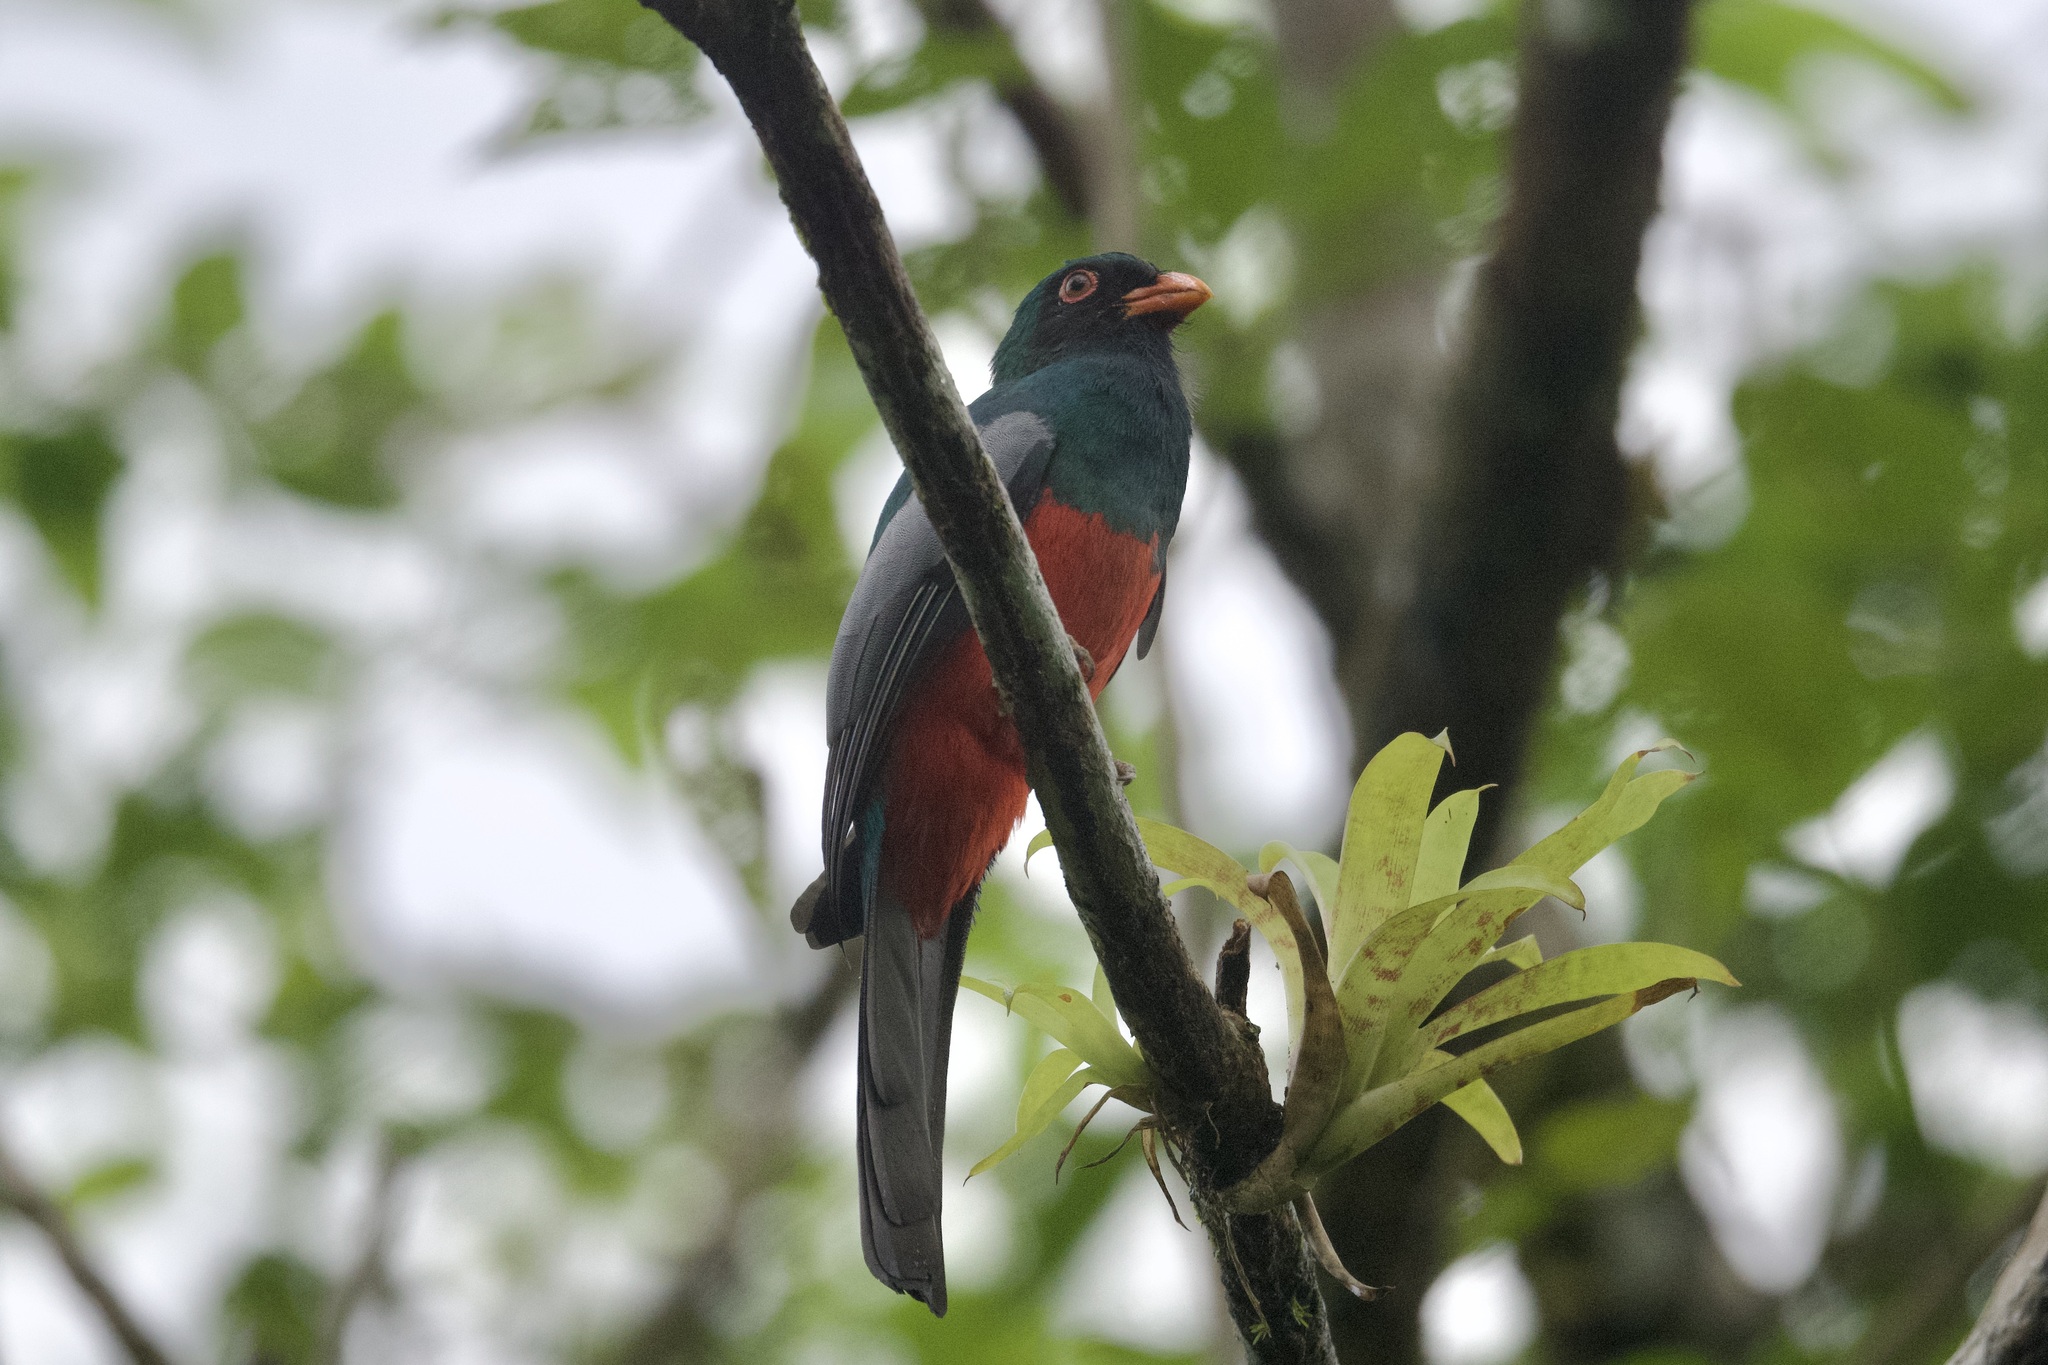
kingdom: Animalia
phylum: Chordata
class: Aves
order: Trogoniformes
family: Trogonidae
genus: Trogon
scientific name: Trogon massena
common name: Slaty-tailed trogon
